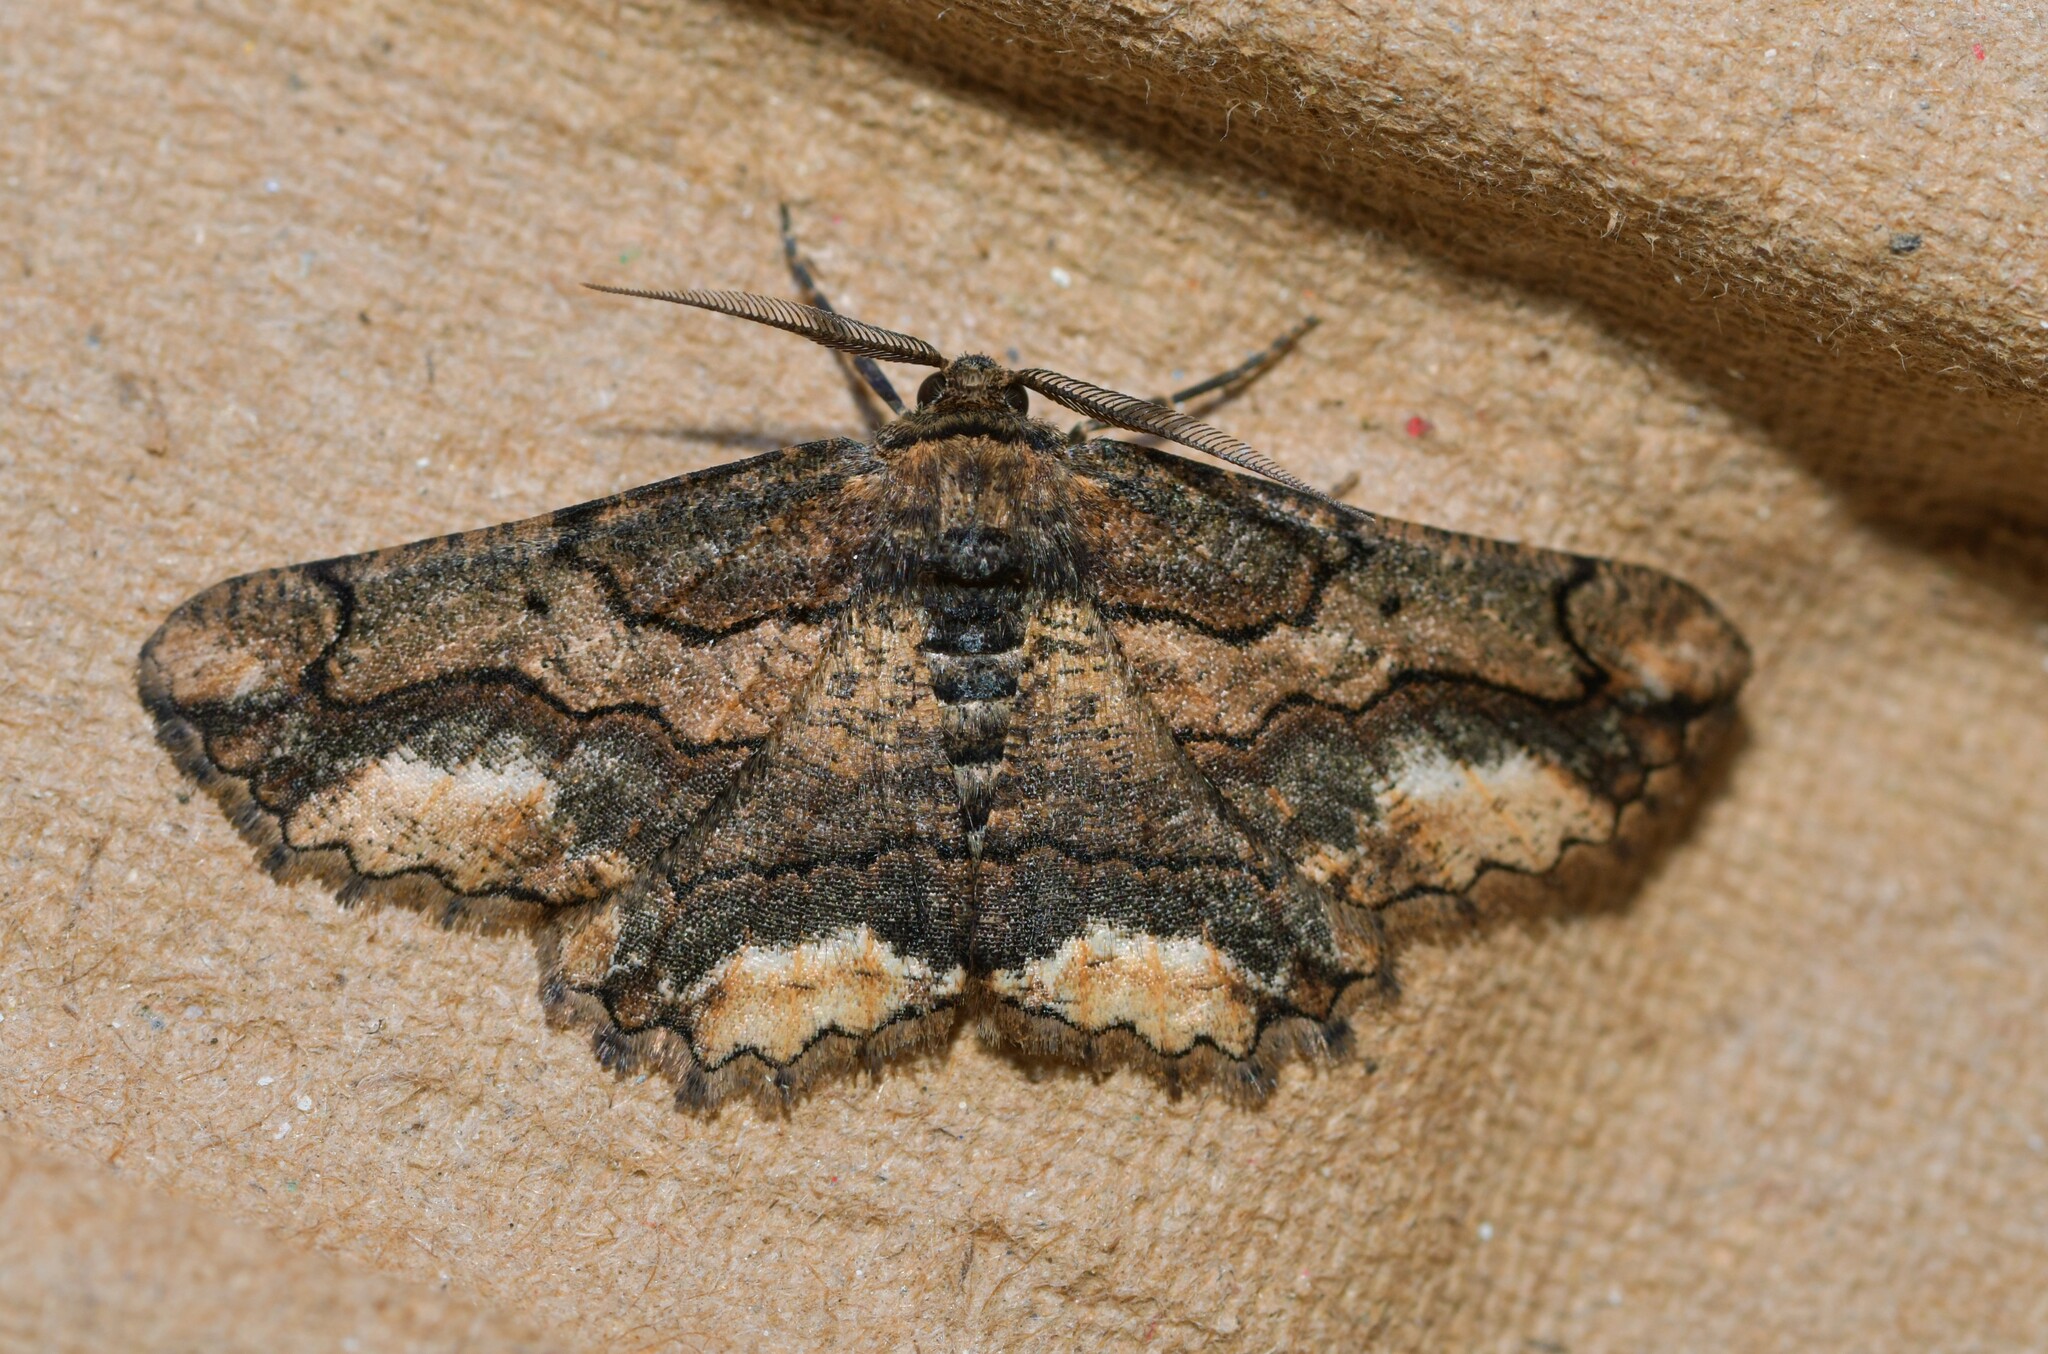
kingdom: Animalia
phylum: Arthropoda
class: Insecta
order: Lepidoptera
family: Geometridae
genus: Menophra
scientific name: Menophra japygiaria
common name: Brassy waved umber
